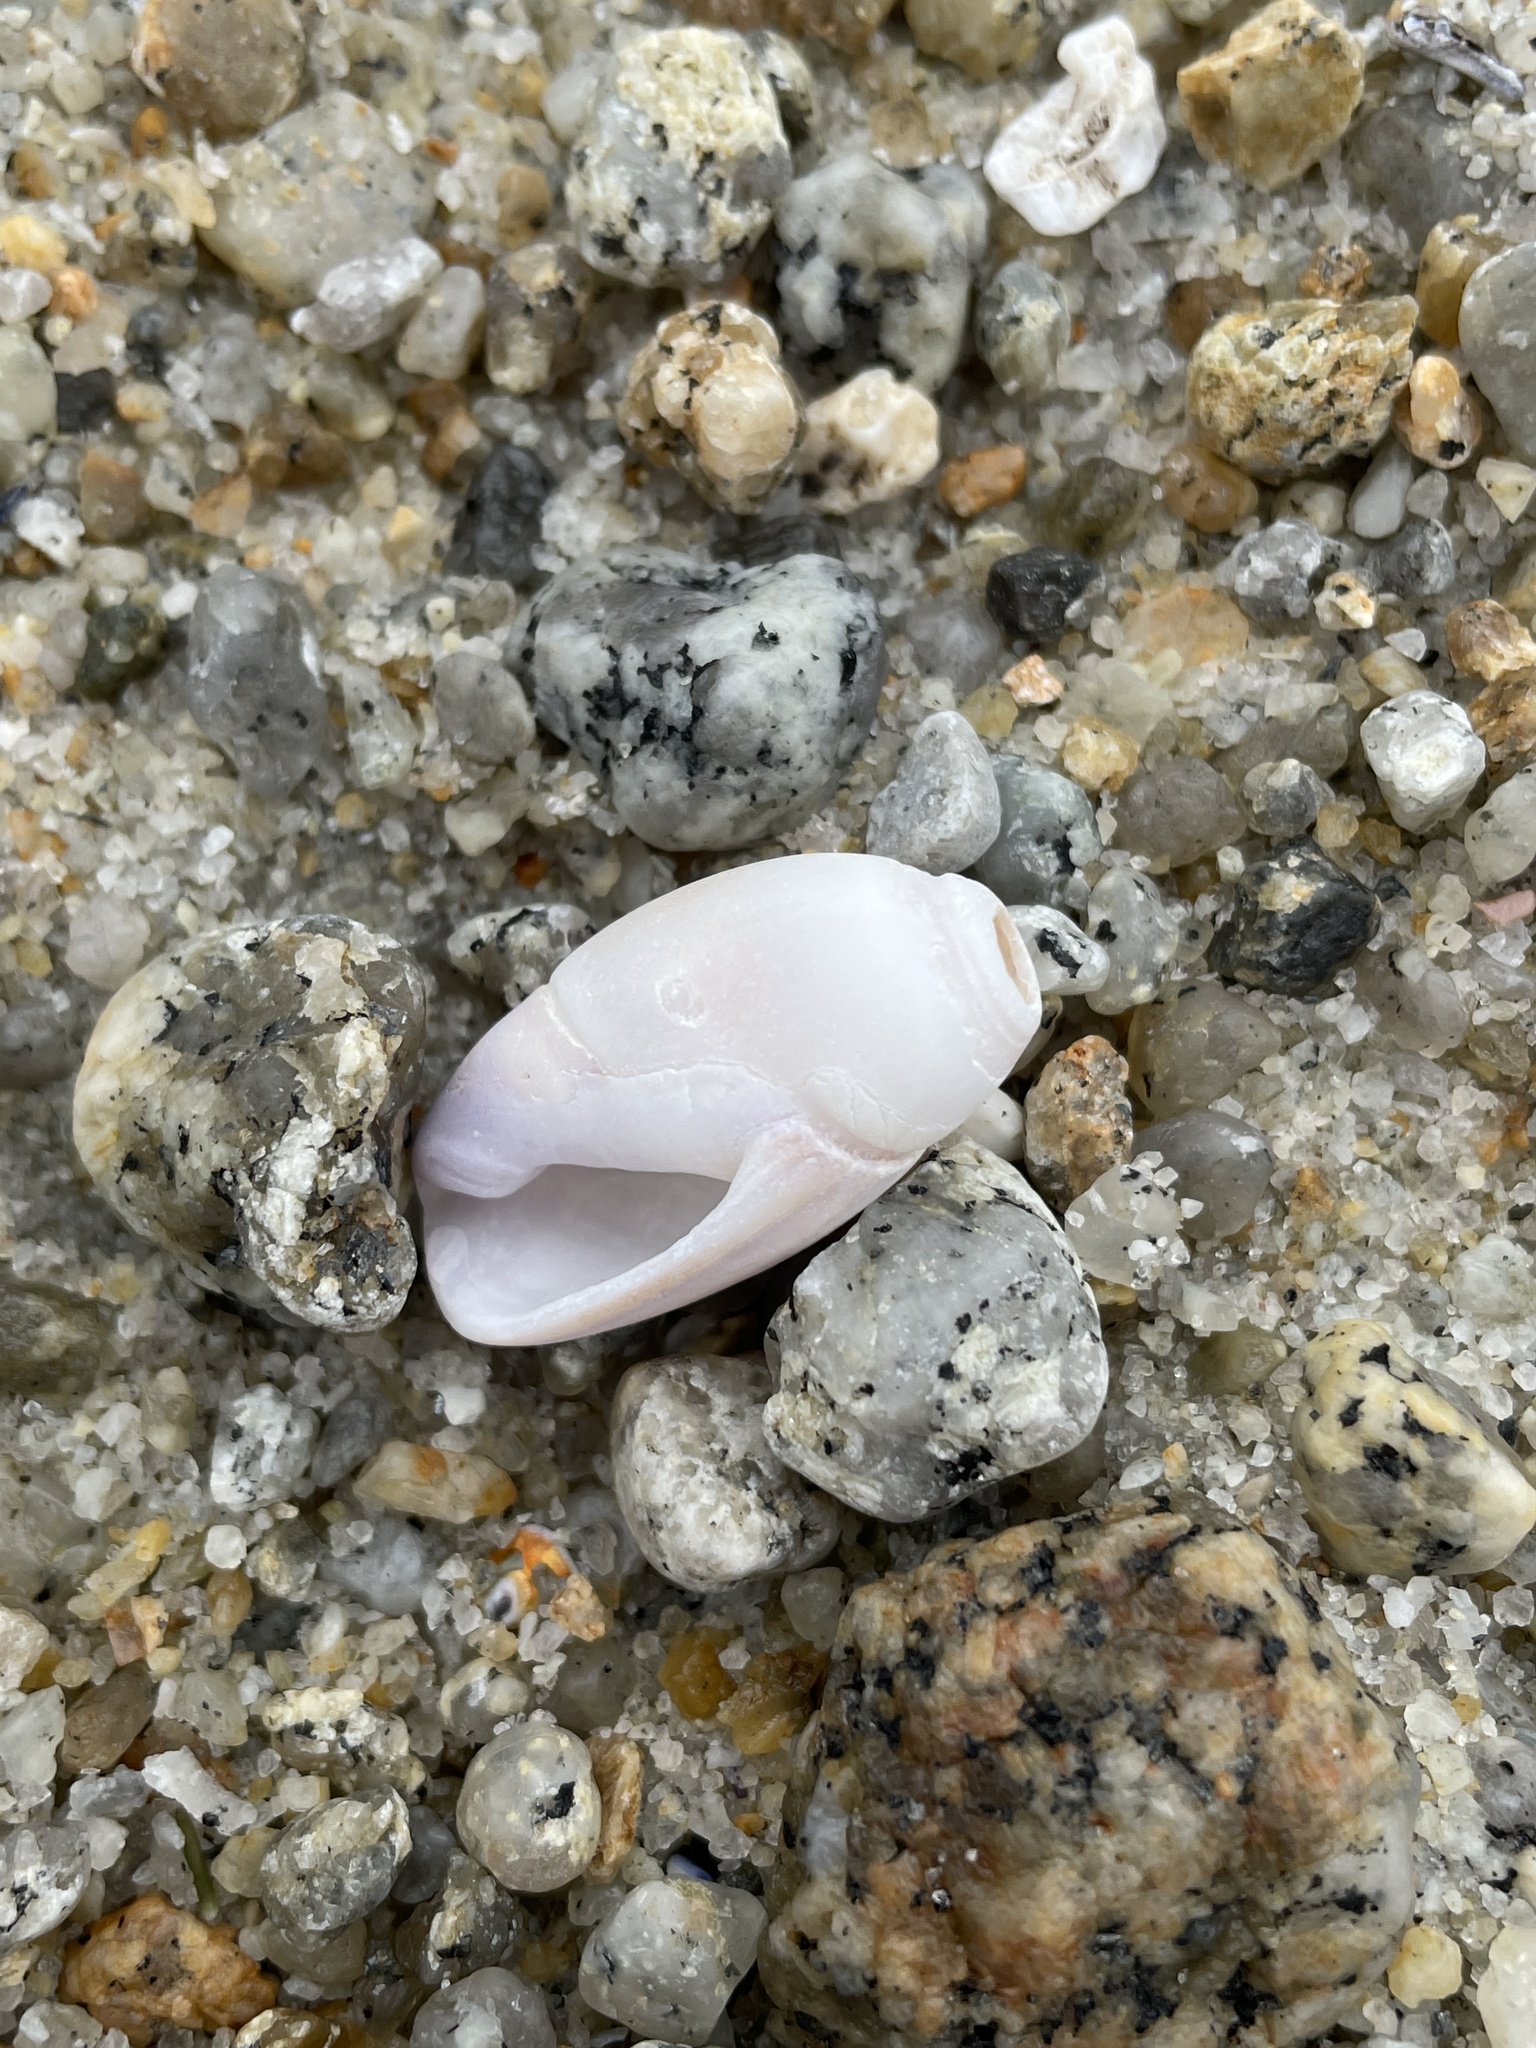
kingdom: Animalia
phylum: Mollusca
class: Gastropoda
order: Neogastropoda
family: Olividae
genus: Callianax
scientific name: Callianax biplicata
